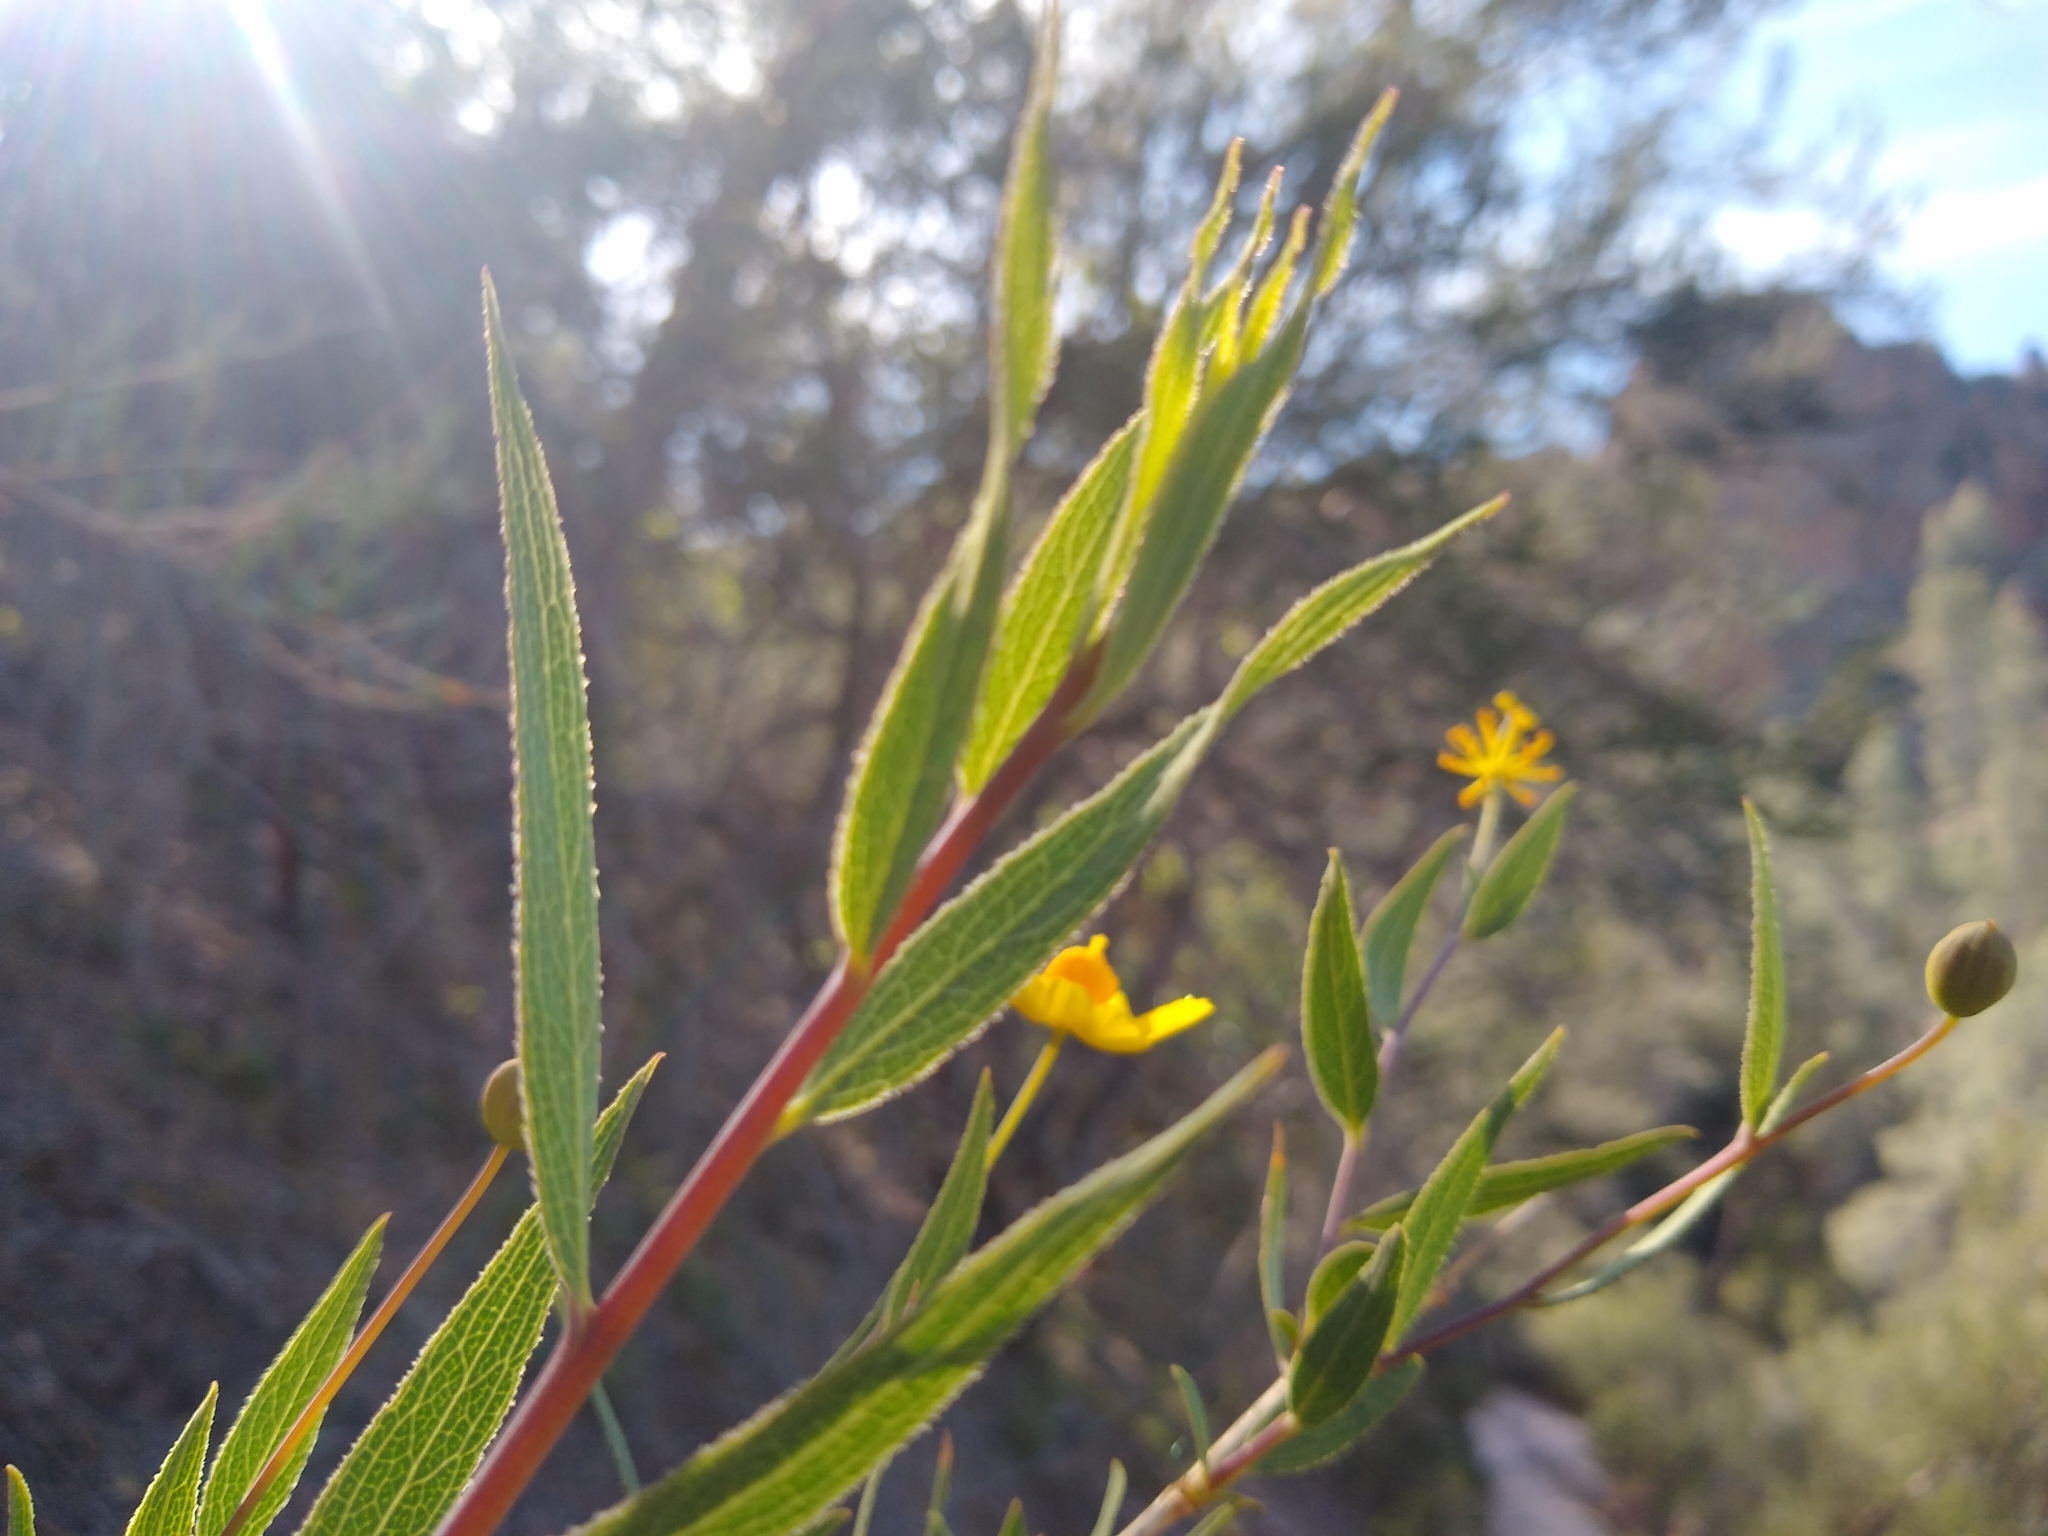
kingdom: Plantae
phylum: Tracheophyta
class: Magnoliopsida
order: Ranunculales
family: Papaveraceae
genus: Dendromecon
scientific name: Dendromecon rigida
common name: Tree poppy
